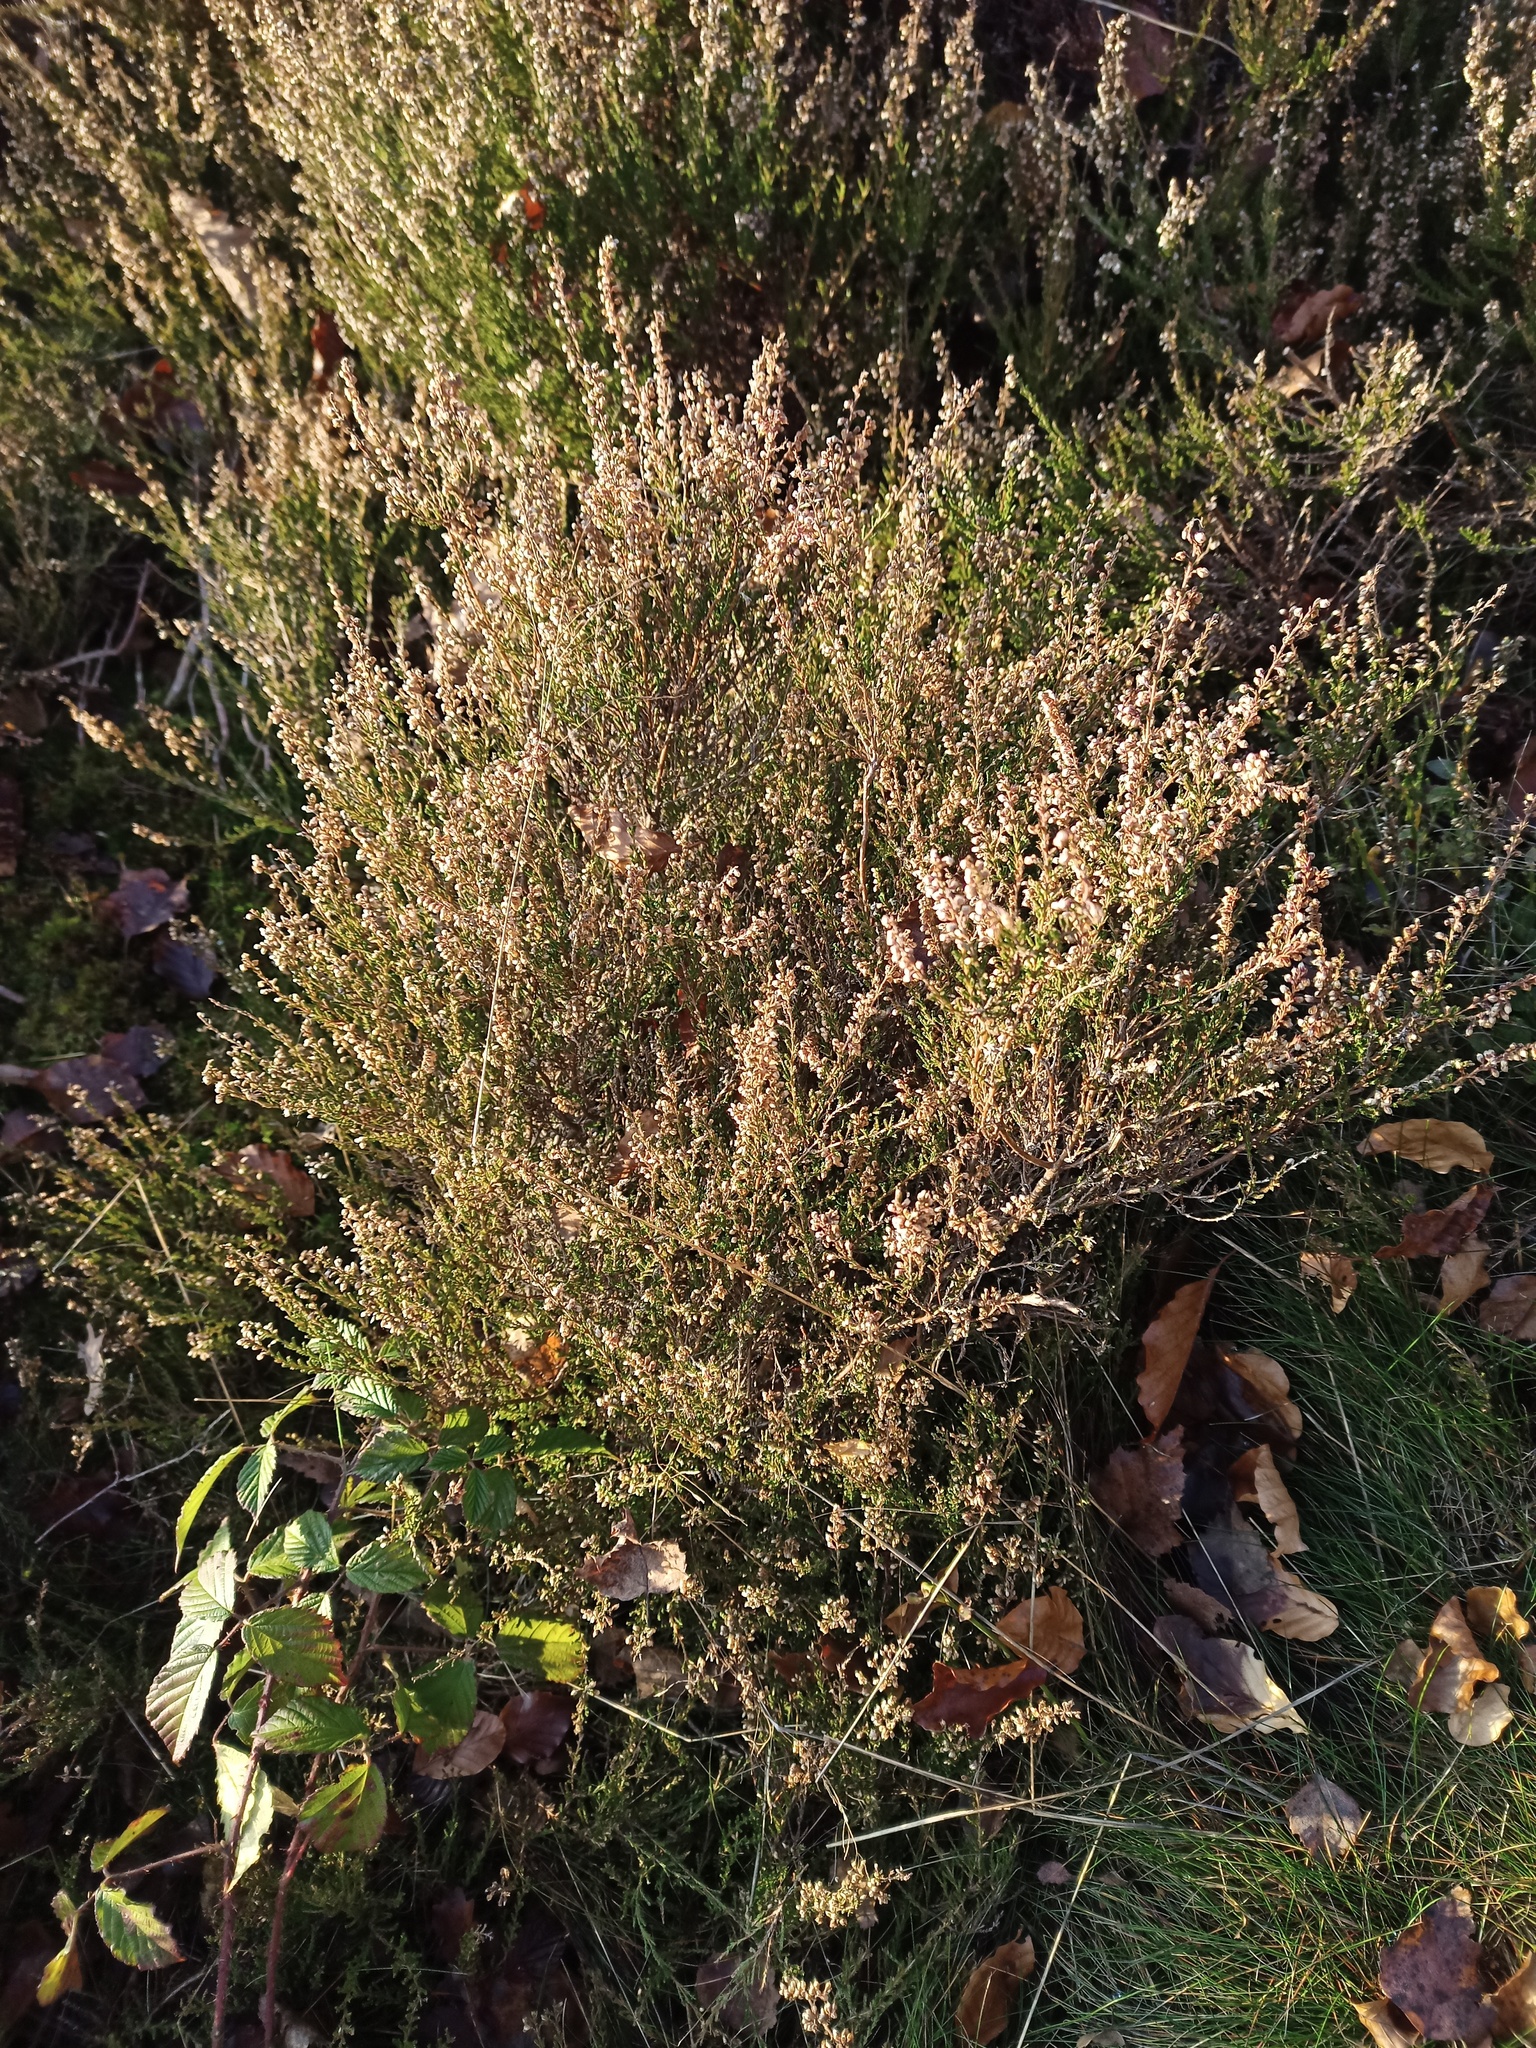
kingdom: Plantae
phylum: Tracheophyta
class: Magnoliopsida
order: Ericales
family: Ericaceae
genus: Calluna
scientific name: Calluna vulgaris
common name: Heather
